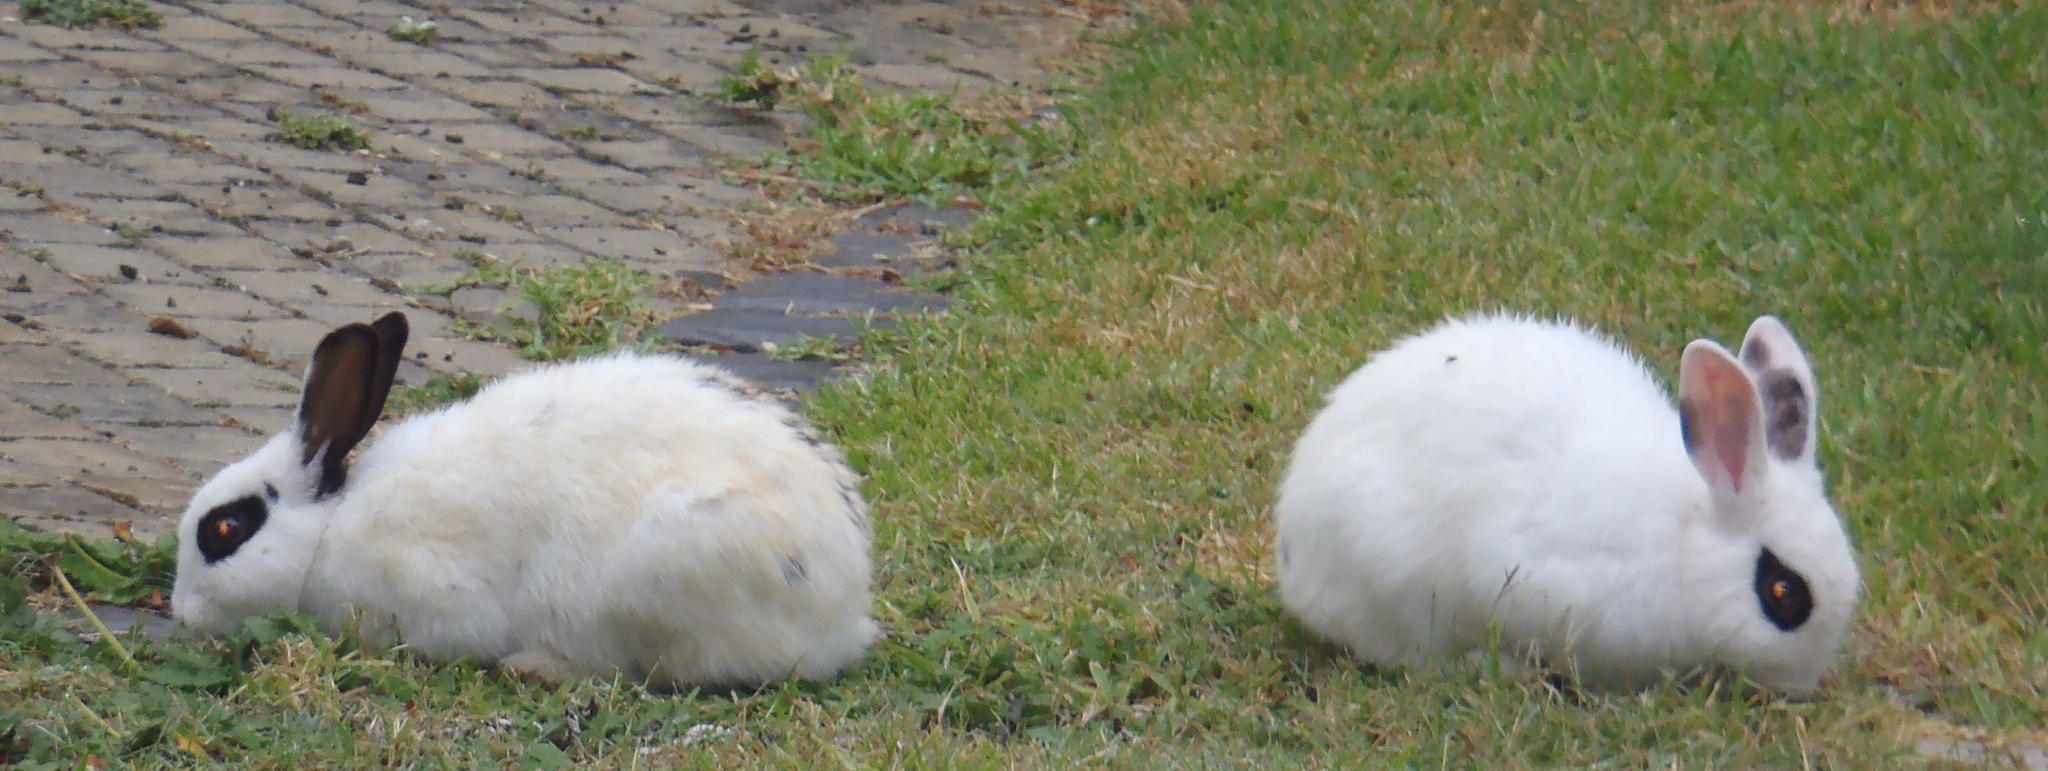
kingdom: Animalia
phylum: Chordata
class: Mammalia
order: Lagomorpha
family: Leporidae
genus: Oryctolagus
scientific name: Oryctolagus cuniculus
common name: European rabbit
